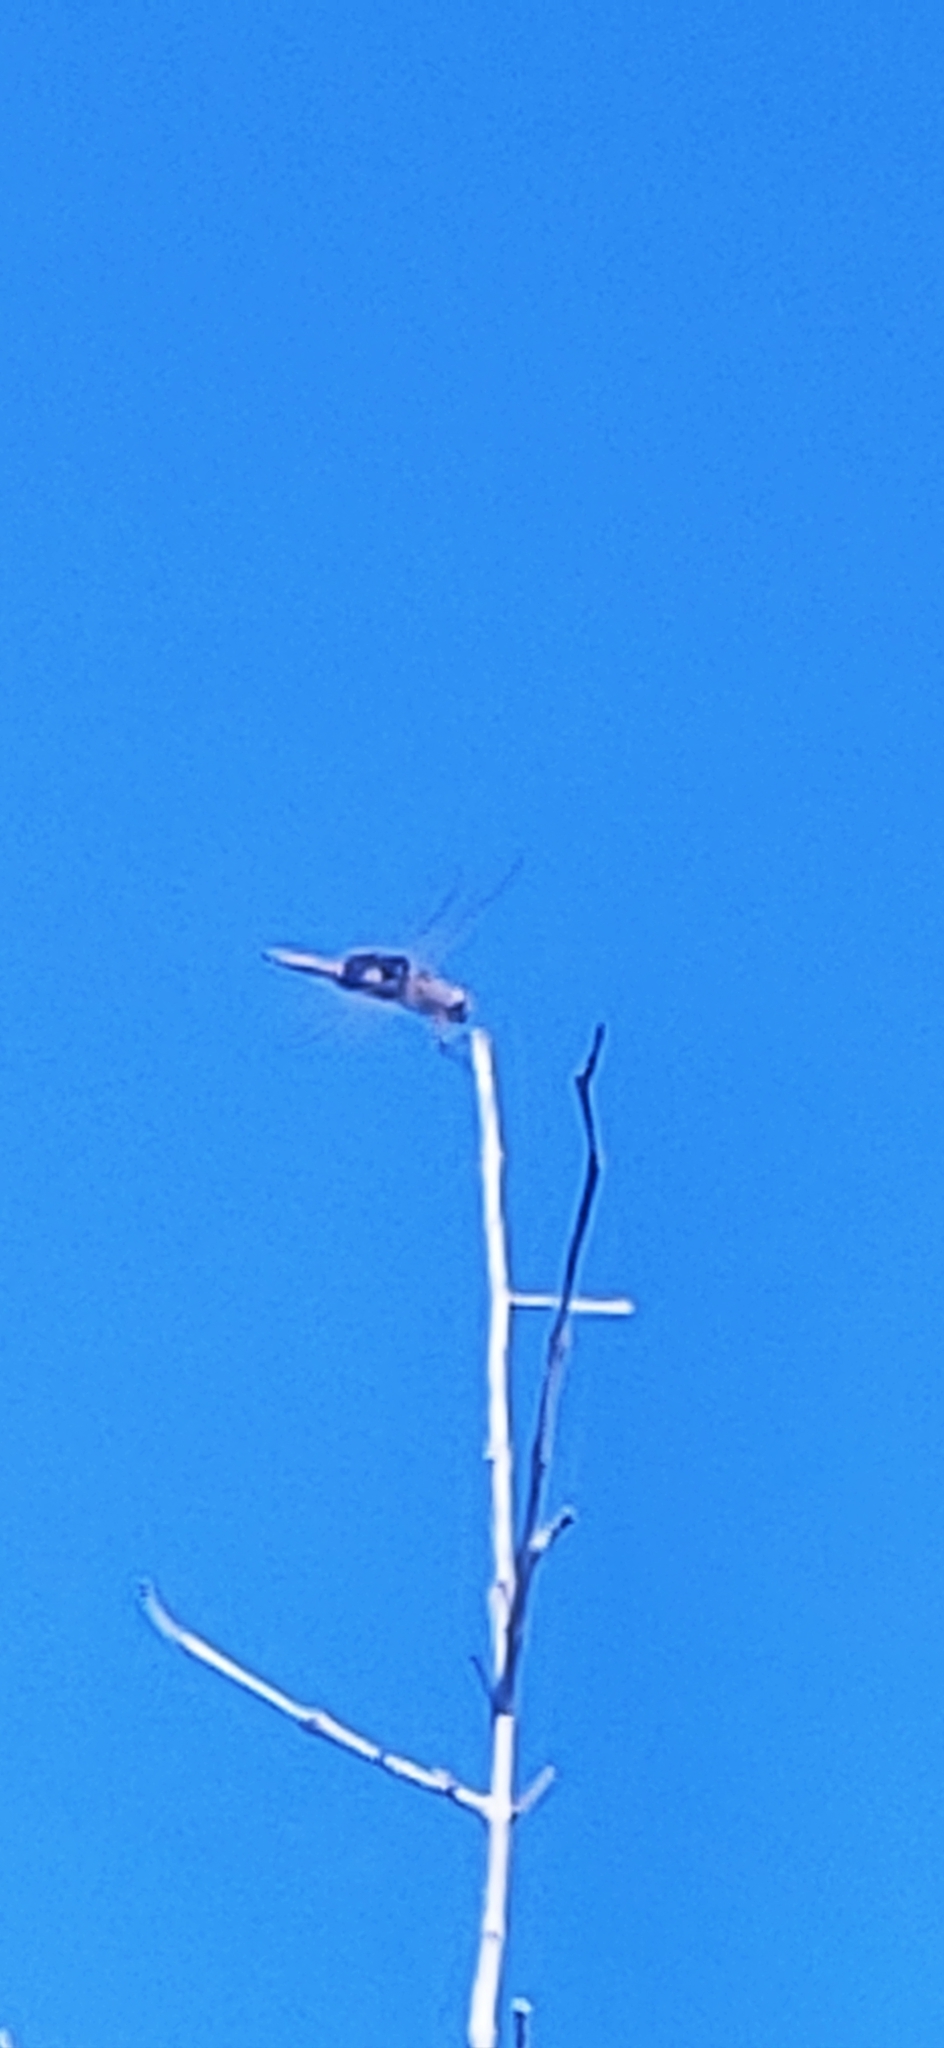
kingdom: Animalia
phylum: Arthropoda
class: Insecta
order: Odonata
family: Libellulidae
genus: Tramea
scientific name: Tramea lacerata
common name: Black saddlebags
